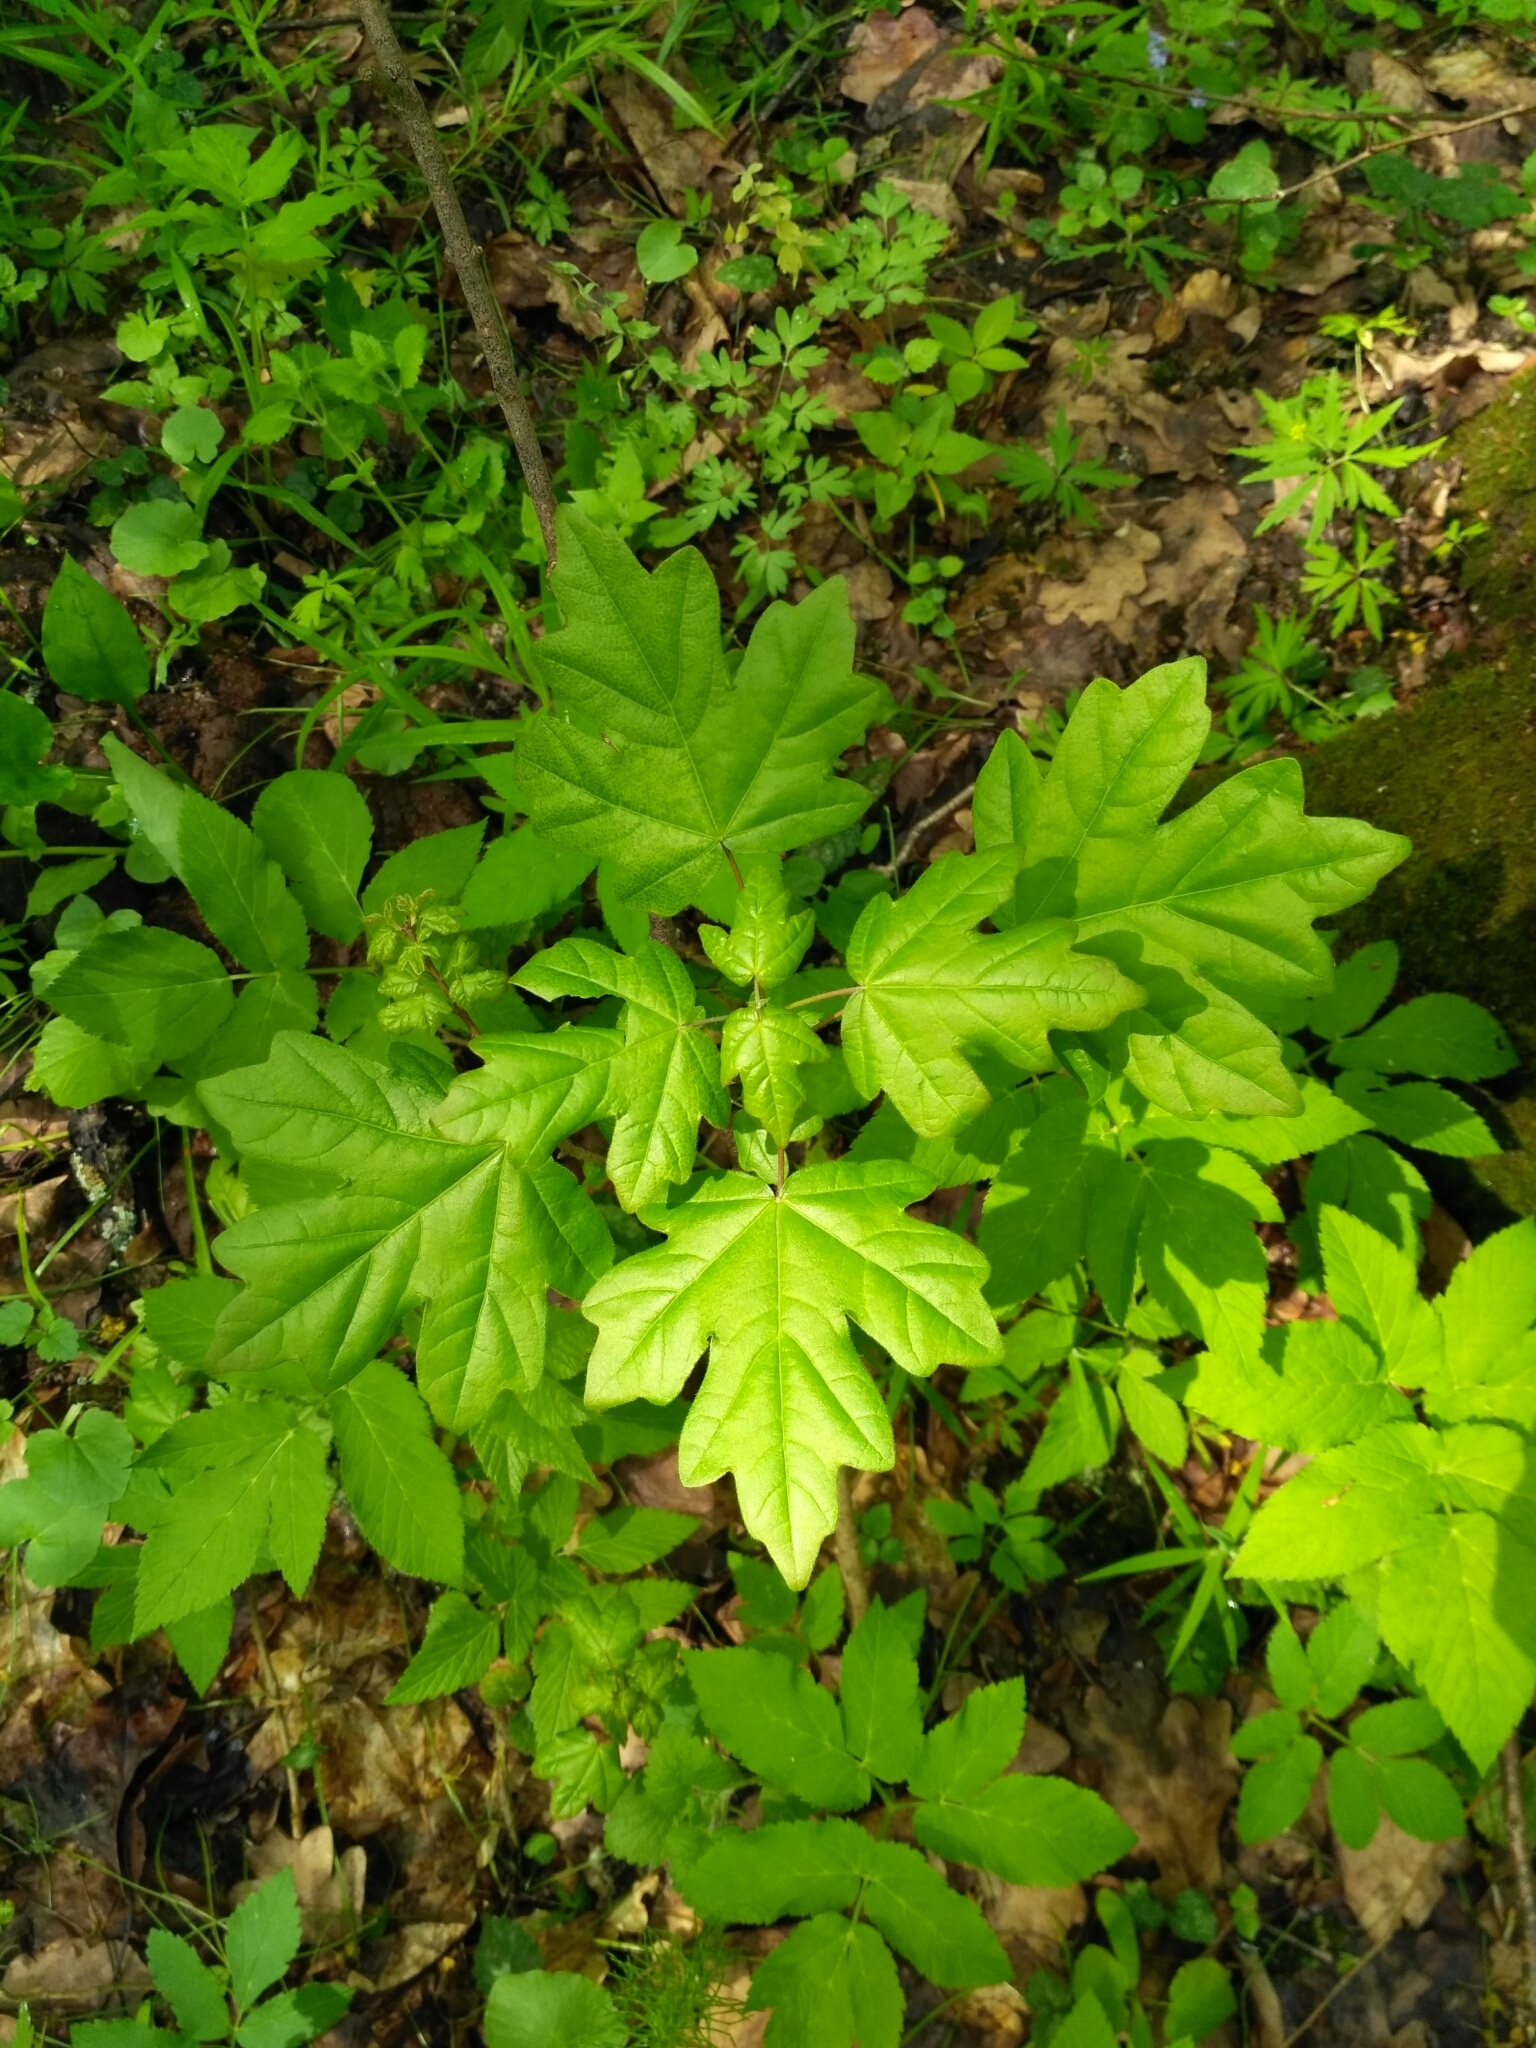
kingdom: Plantae
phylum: Tracheophyta
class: Magnoliopsida
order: Sapindales
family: Sapindaceae
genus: Acer
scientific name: Acer campestre
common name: Field maple
